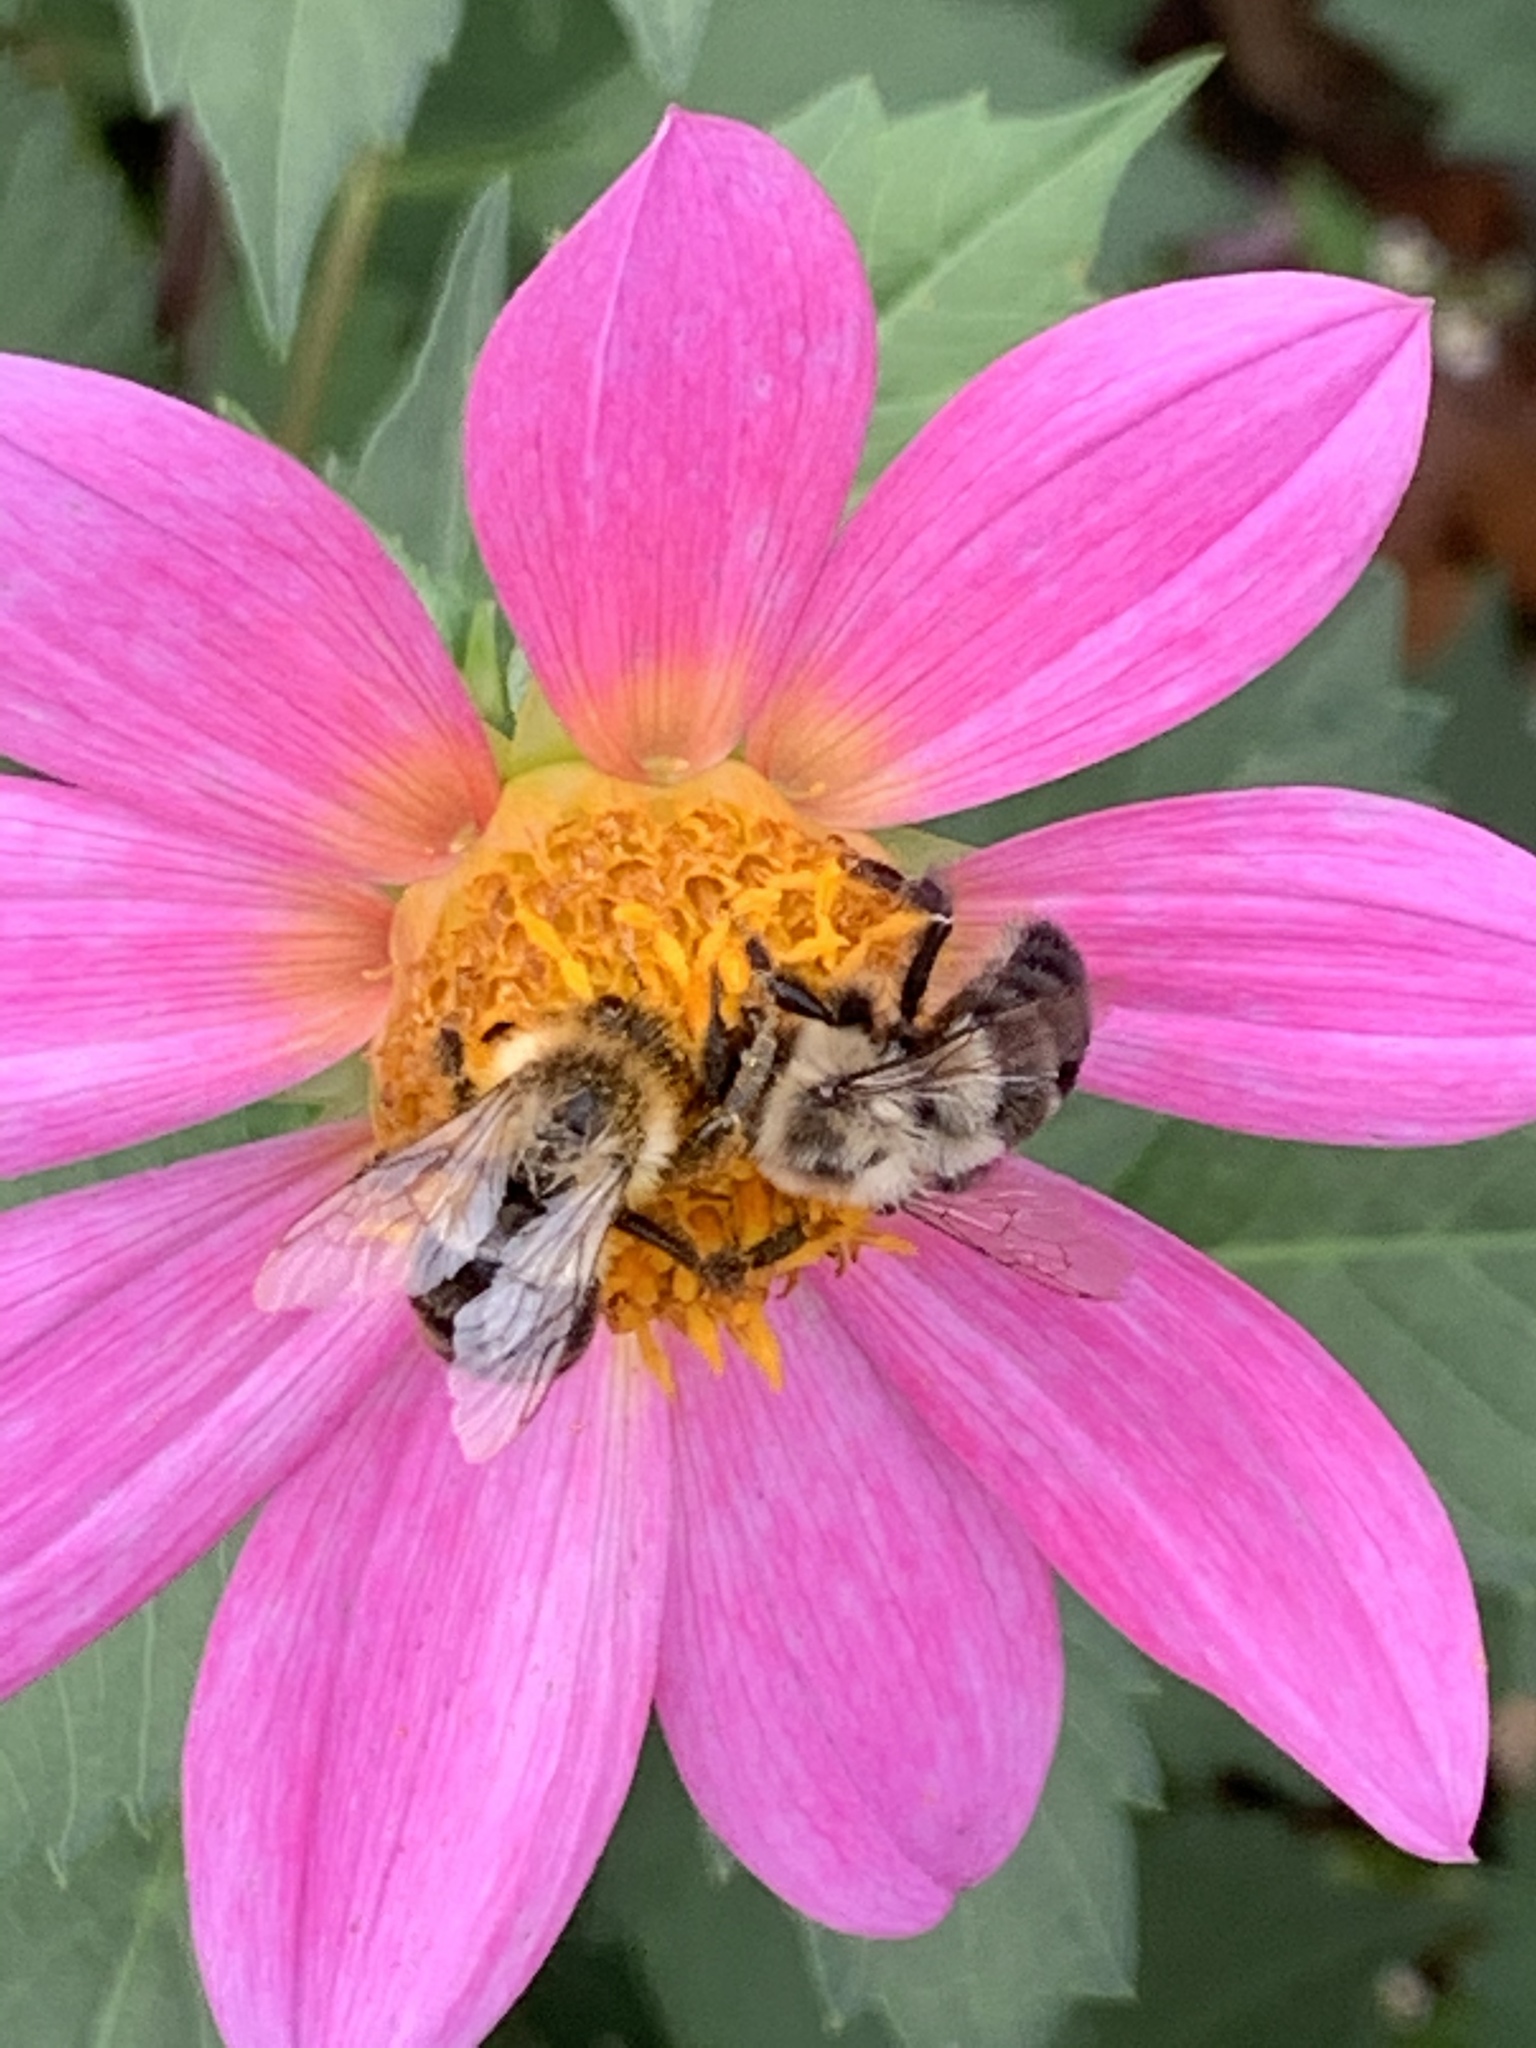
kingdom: Animalia
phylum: Arthropoda
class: Insecta
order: Hymenoptera
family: Apidae
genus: Bombus
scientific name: Bombus impatiens
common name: Common eastern bumble bee
